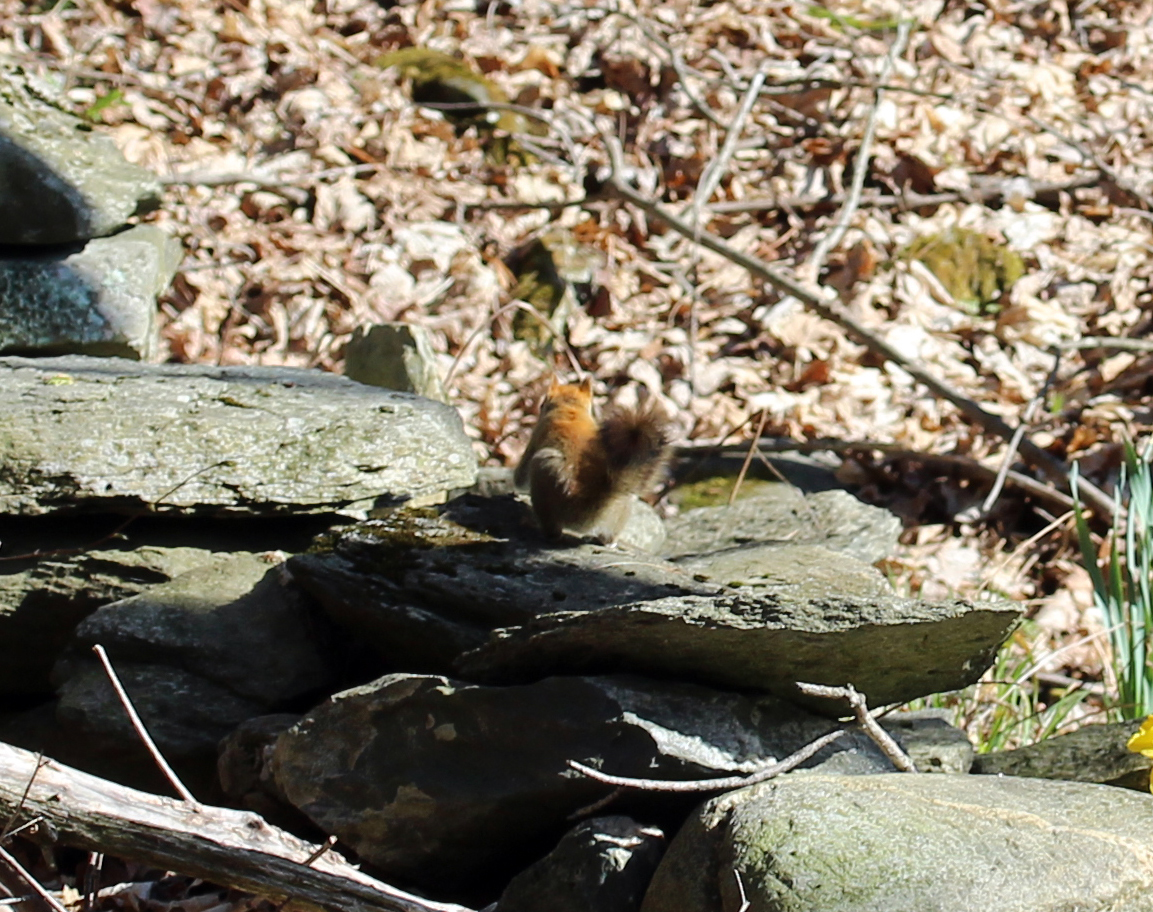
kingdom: Animalia
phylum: Chordata
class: Mammalia
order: Rodentia
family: Sciuridae
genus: Tamiasciurus
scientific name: Tamiasciurus hudsonicus
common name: Red squirrel
